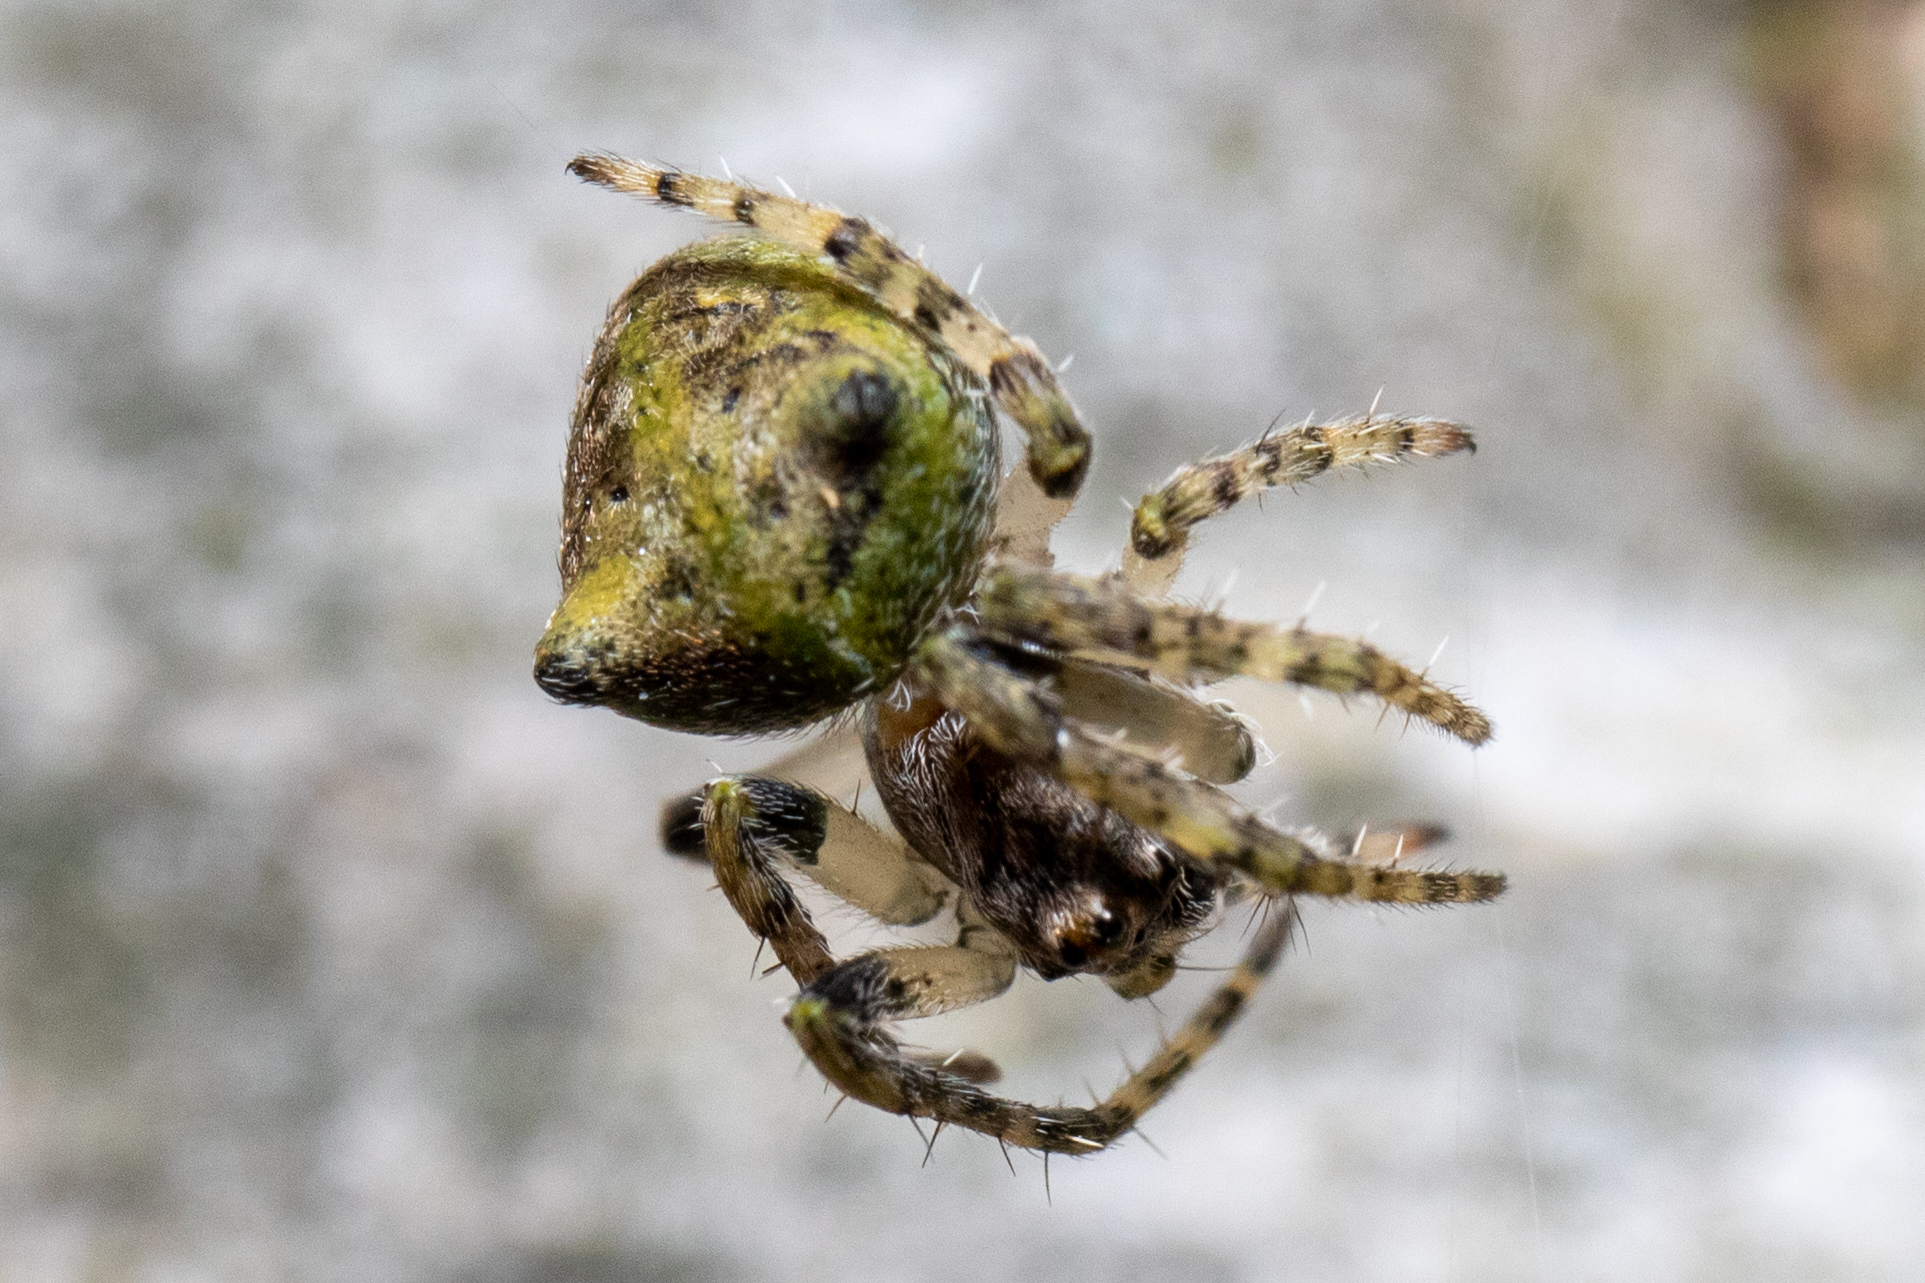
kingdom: Animalia
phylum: Arthropoda
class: Arachnida
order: Araneae
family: Araneidae
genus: Gibbaranea
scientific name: Gibbaranea gibbosa
